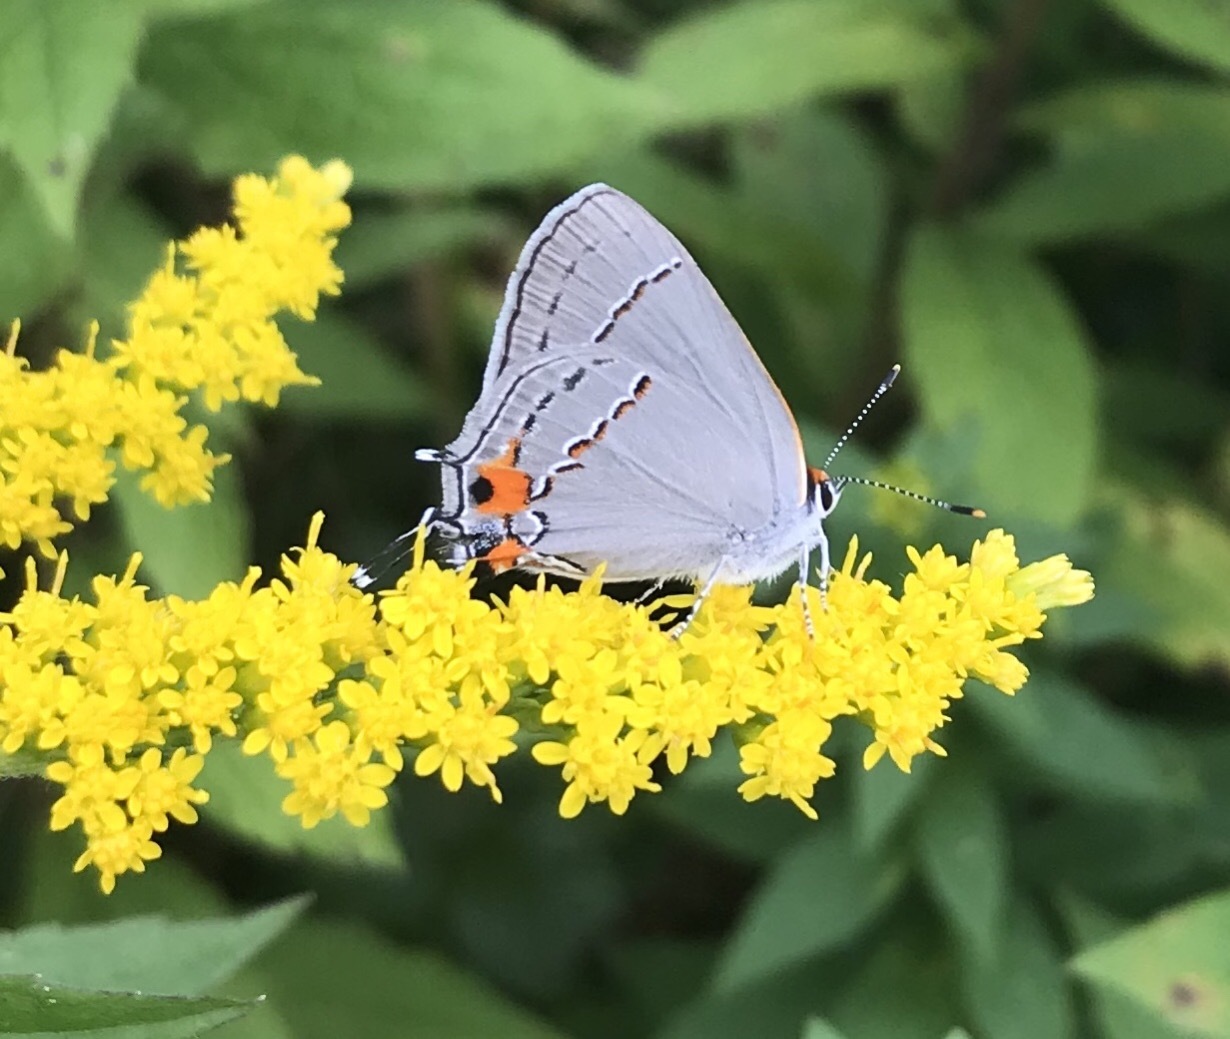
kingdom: Animalia
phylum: Arthropoda
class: Insecta
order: Lepidoptera
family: Lycaenidae
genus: Strymon
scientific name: Strymon melinus
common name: Gray hairstreak
